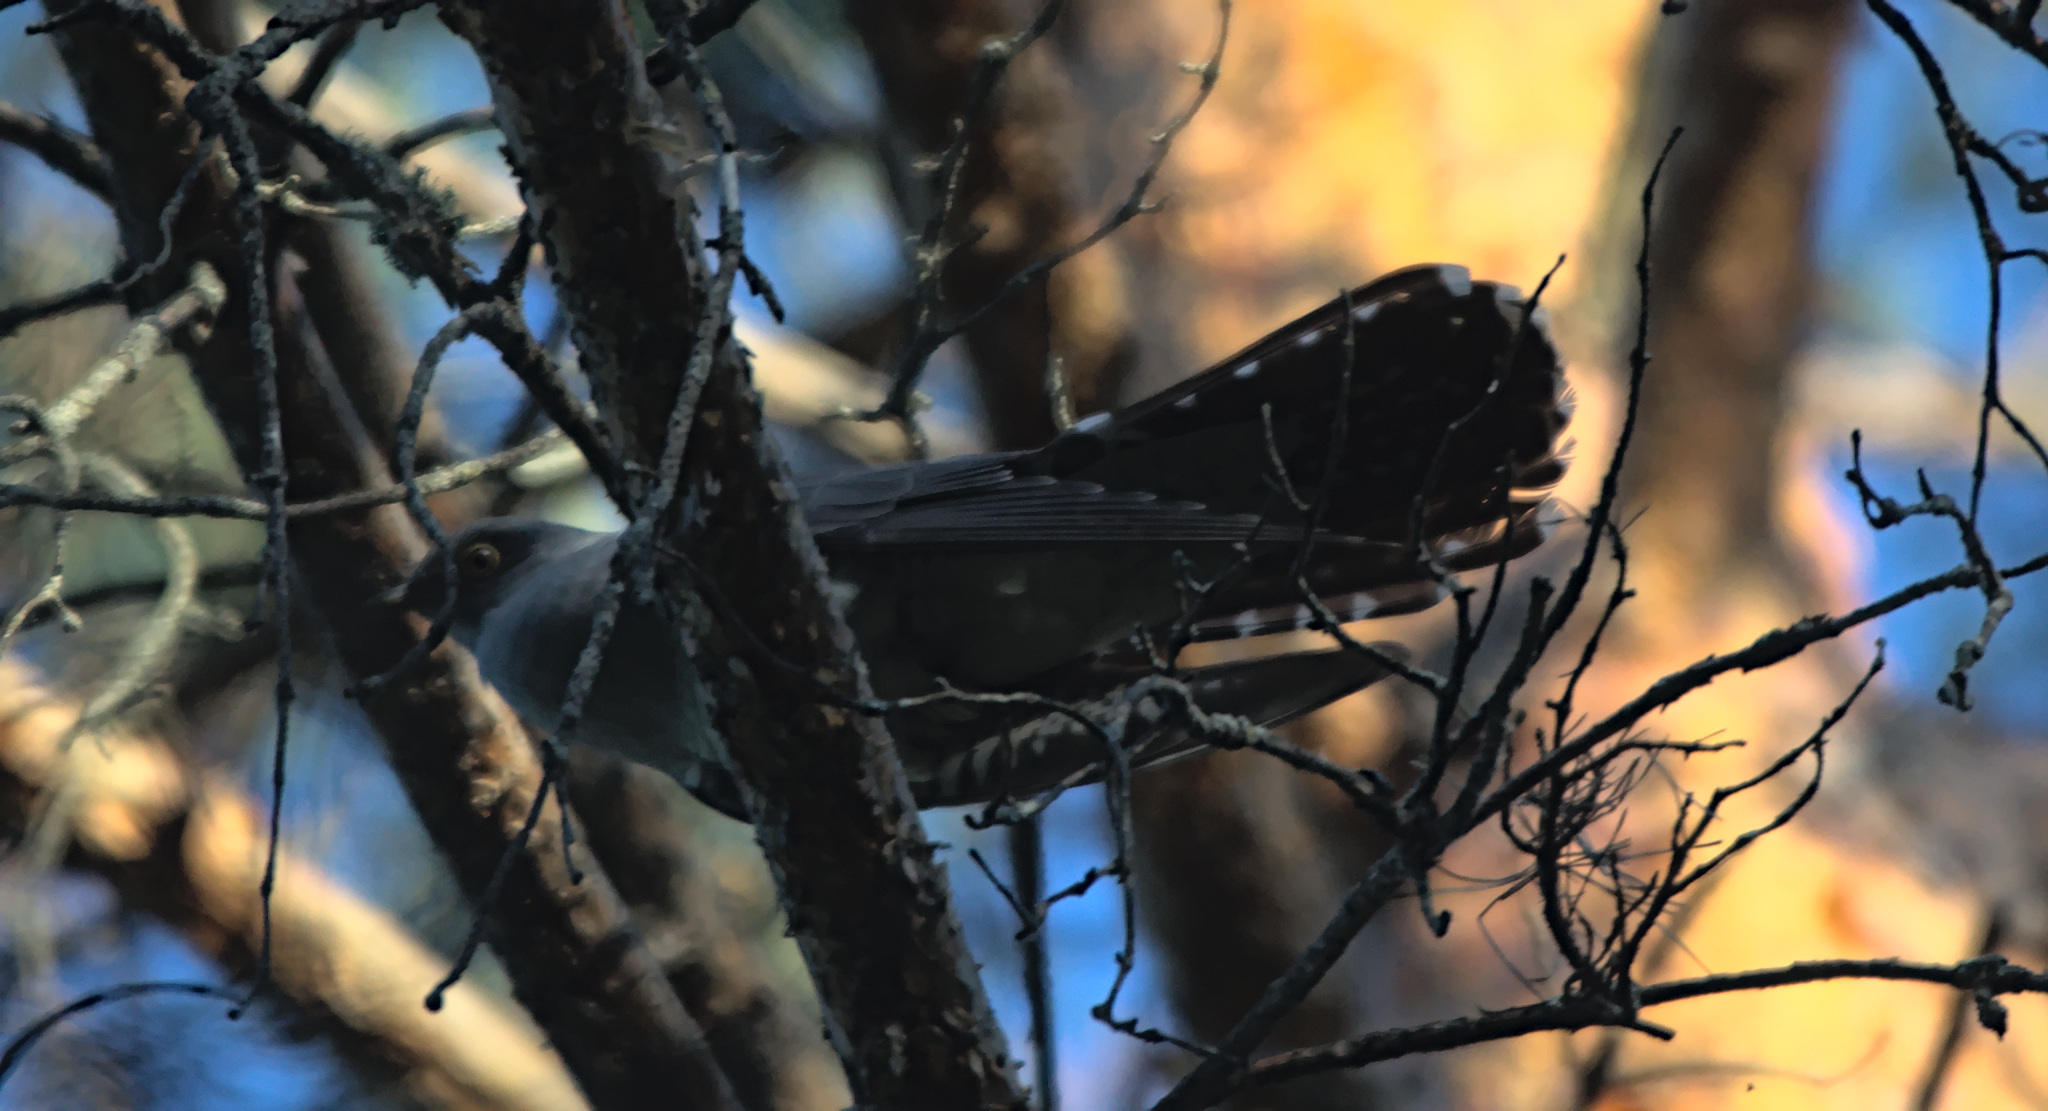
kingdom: Animalia
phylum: Chordata
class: Aves
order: Cuculiformes
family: Cuculidae
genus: Cuculus
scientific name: Cuculus canorus
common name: Common cuckoo
